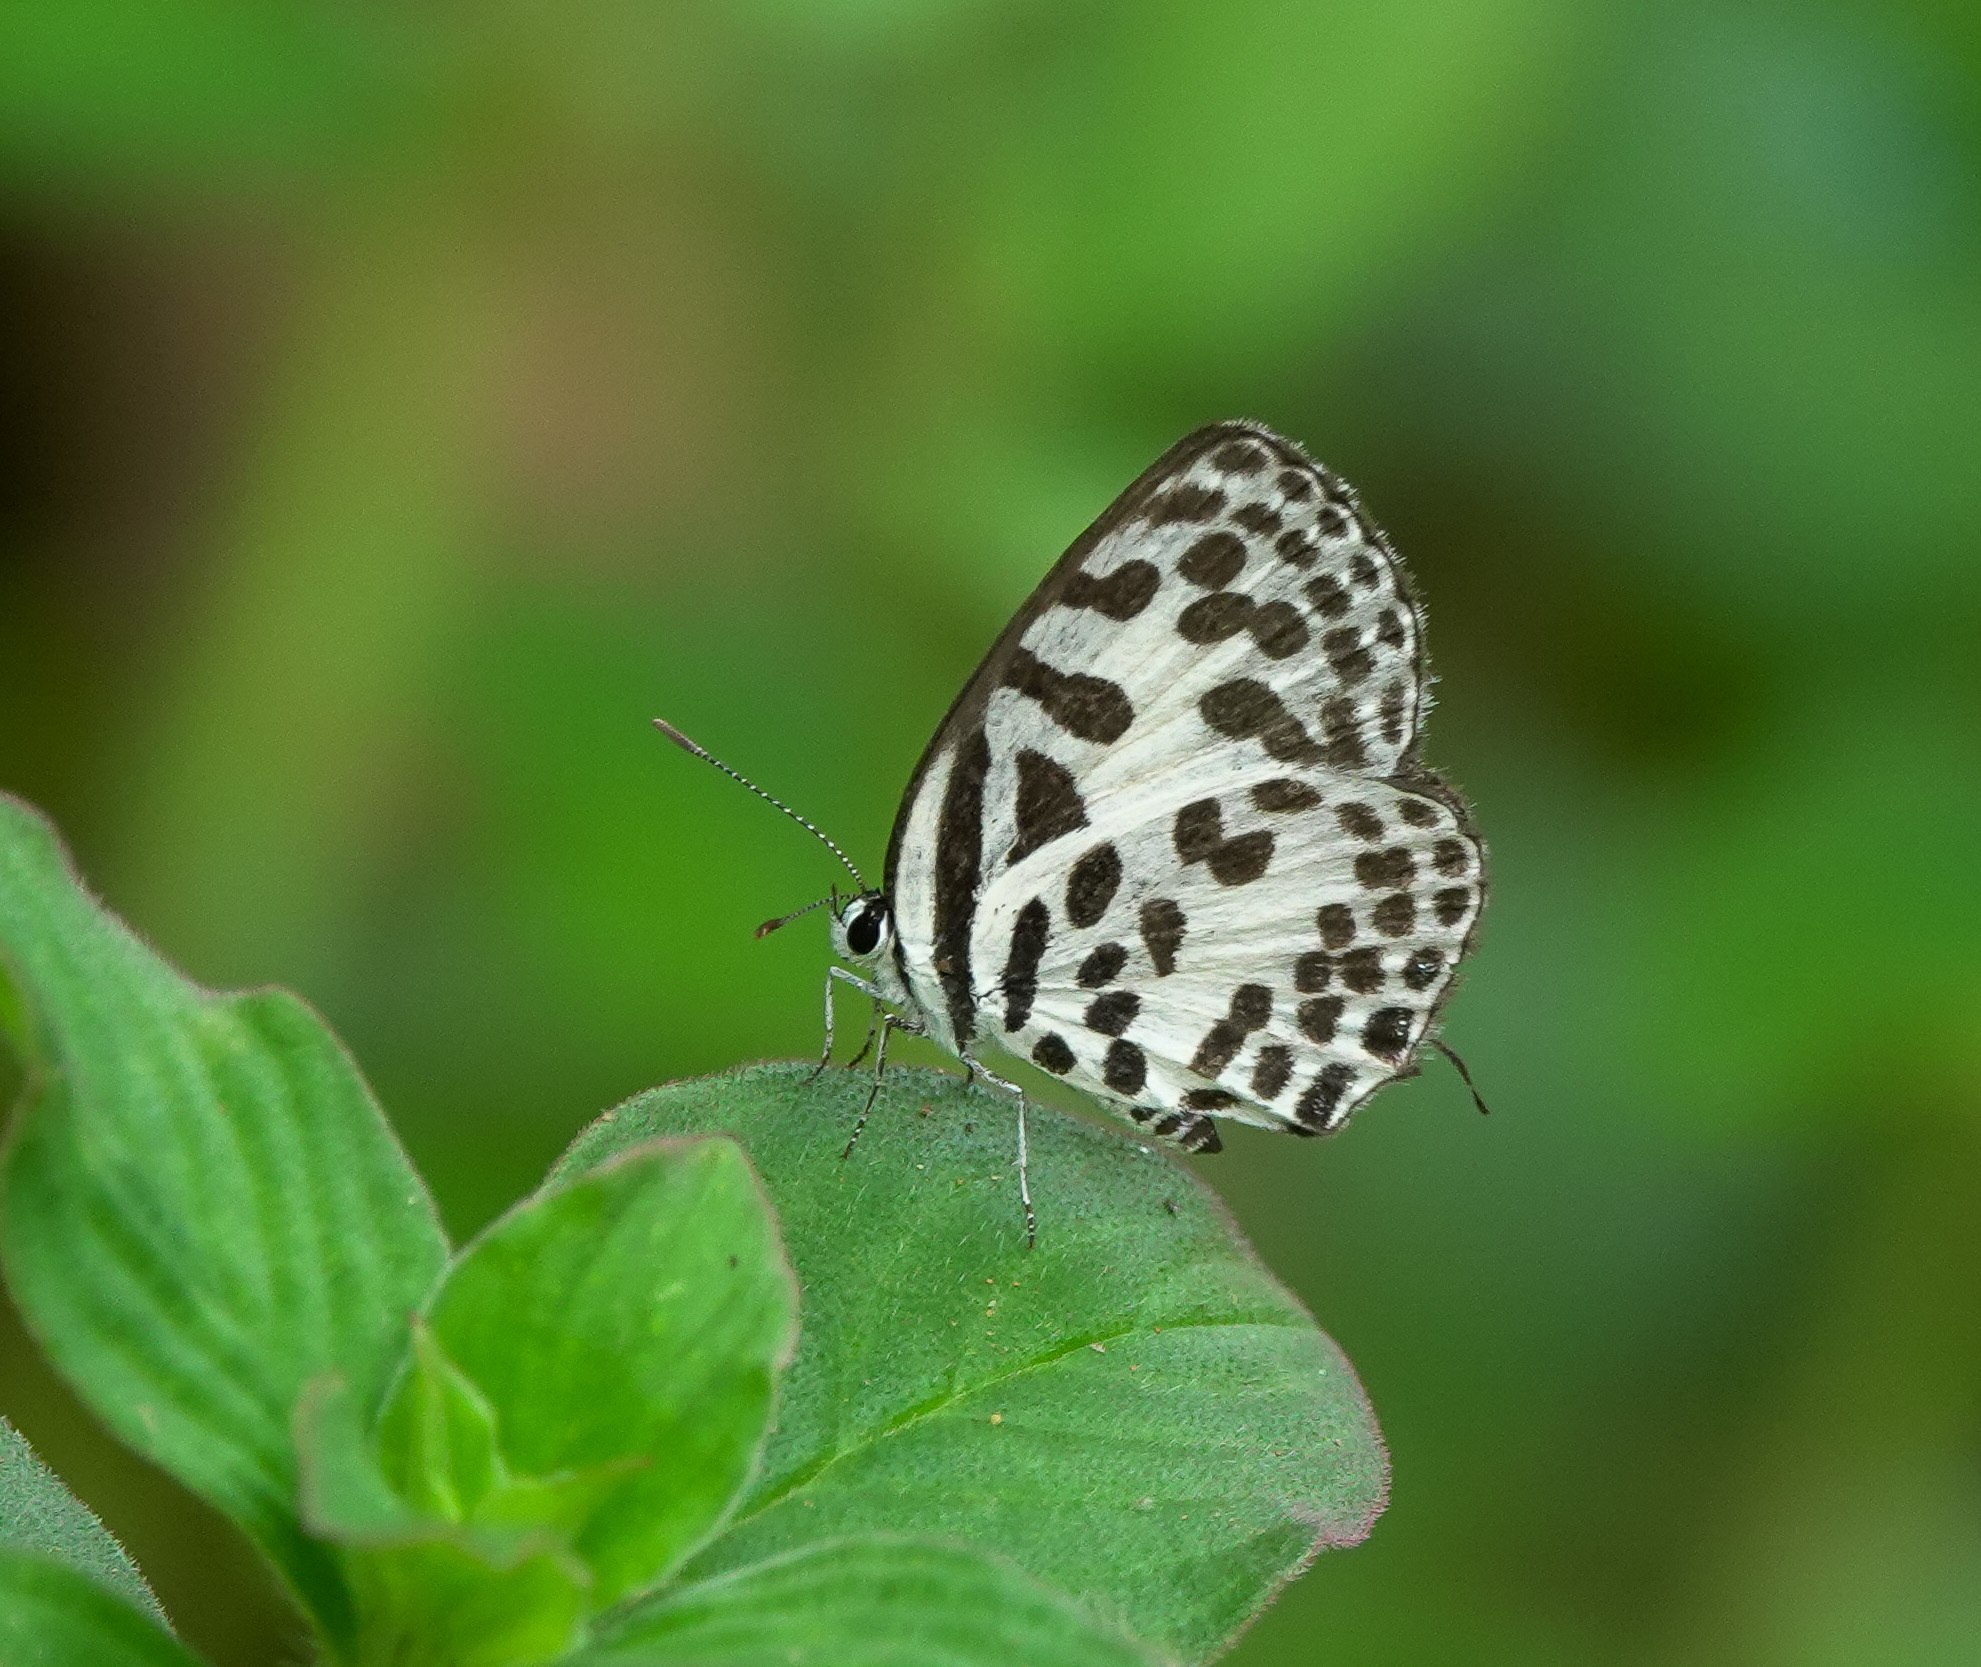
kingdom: Animalia
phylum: Arthropoda
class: Insecta
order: Lepidoptera
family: Lycaenidae
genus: Castalius
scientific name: Castalius rosimon
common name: Common pierrot
